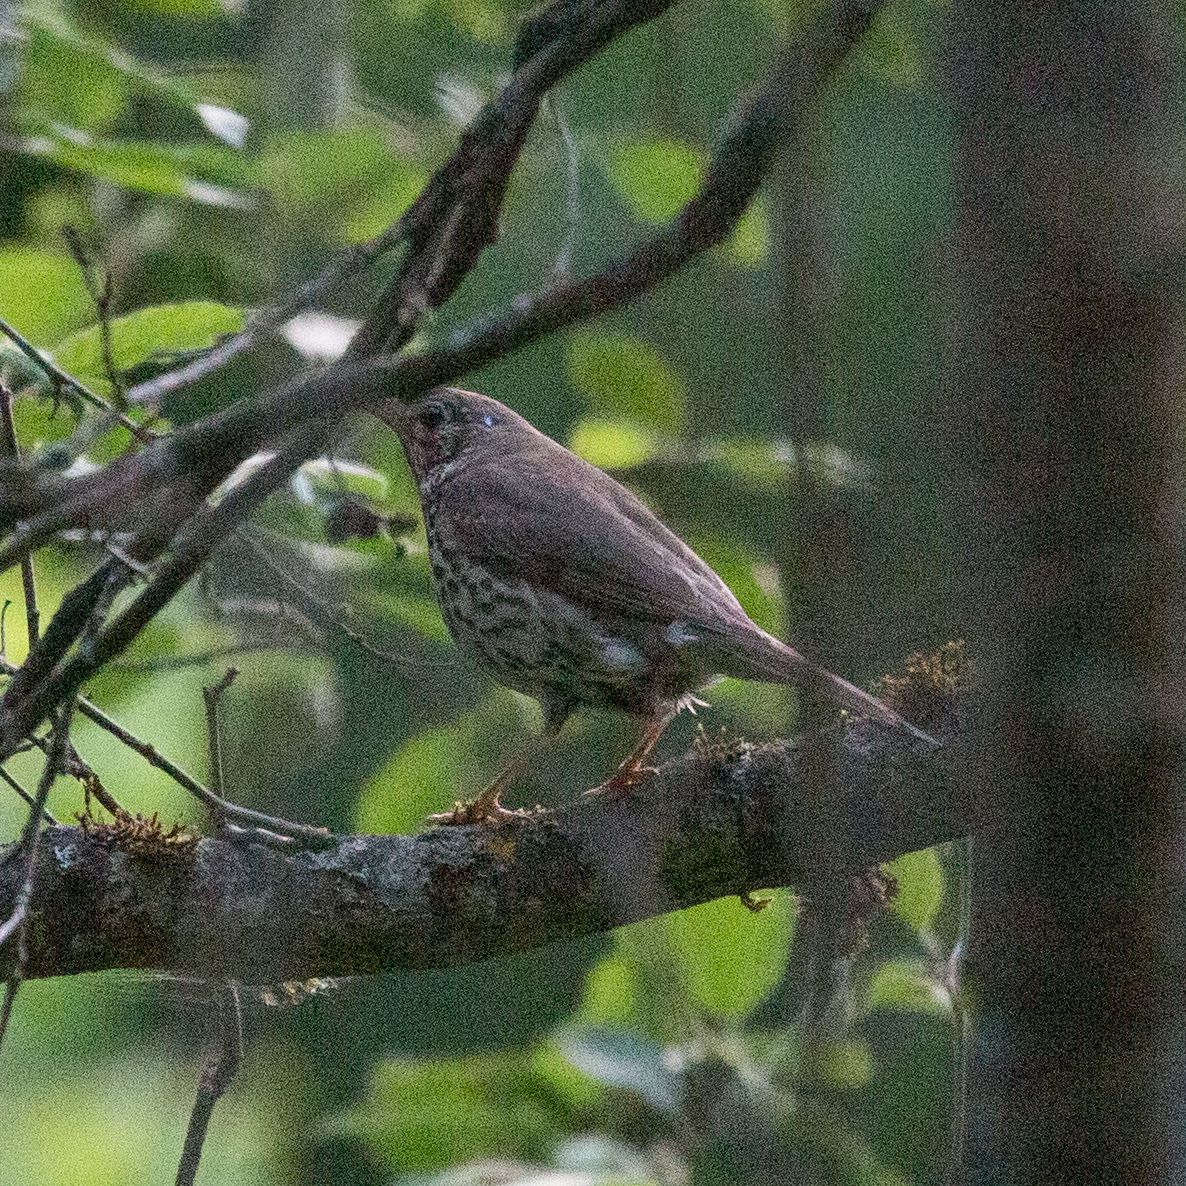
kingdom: Animalia
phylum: Chordata
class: Aves
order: Passeriformes
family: Turdidae
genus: Turdus
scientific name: Turdus philomelos
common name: Song thrush
